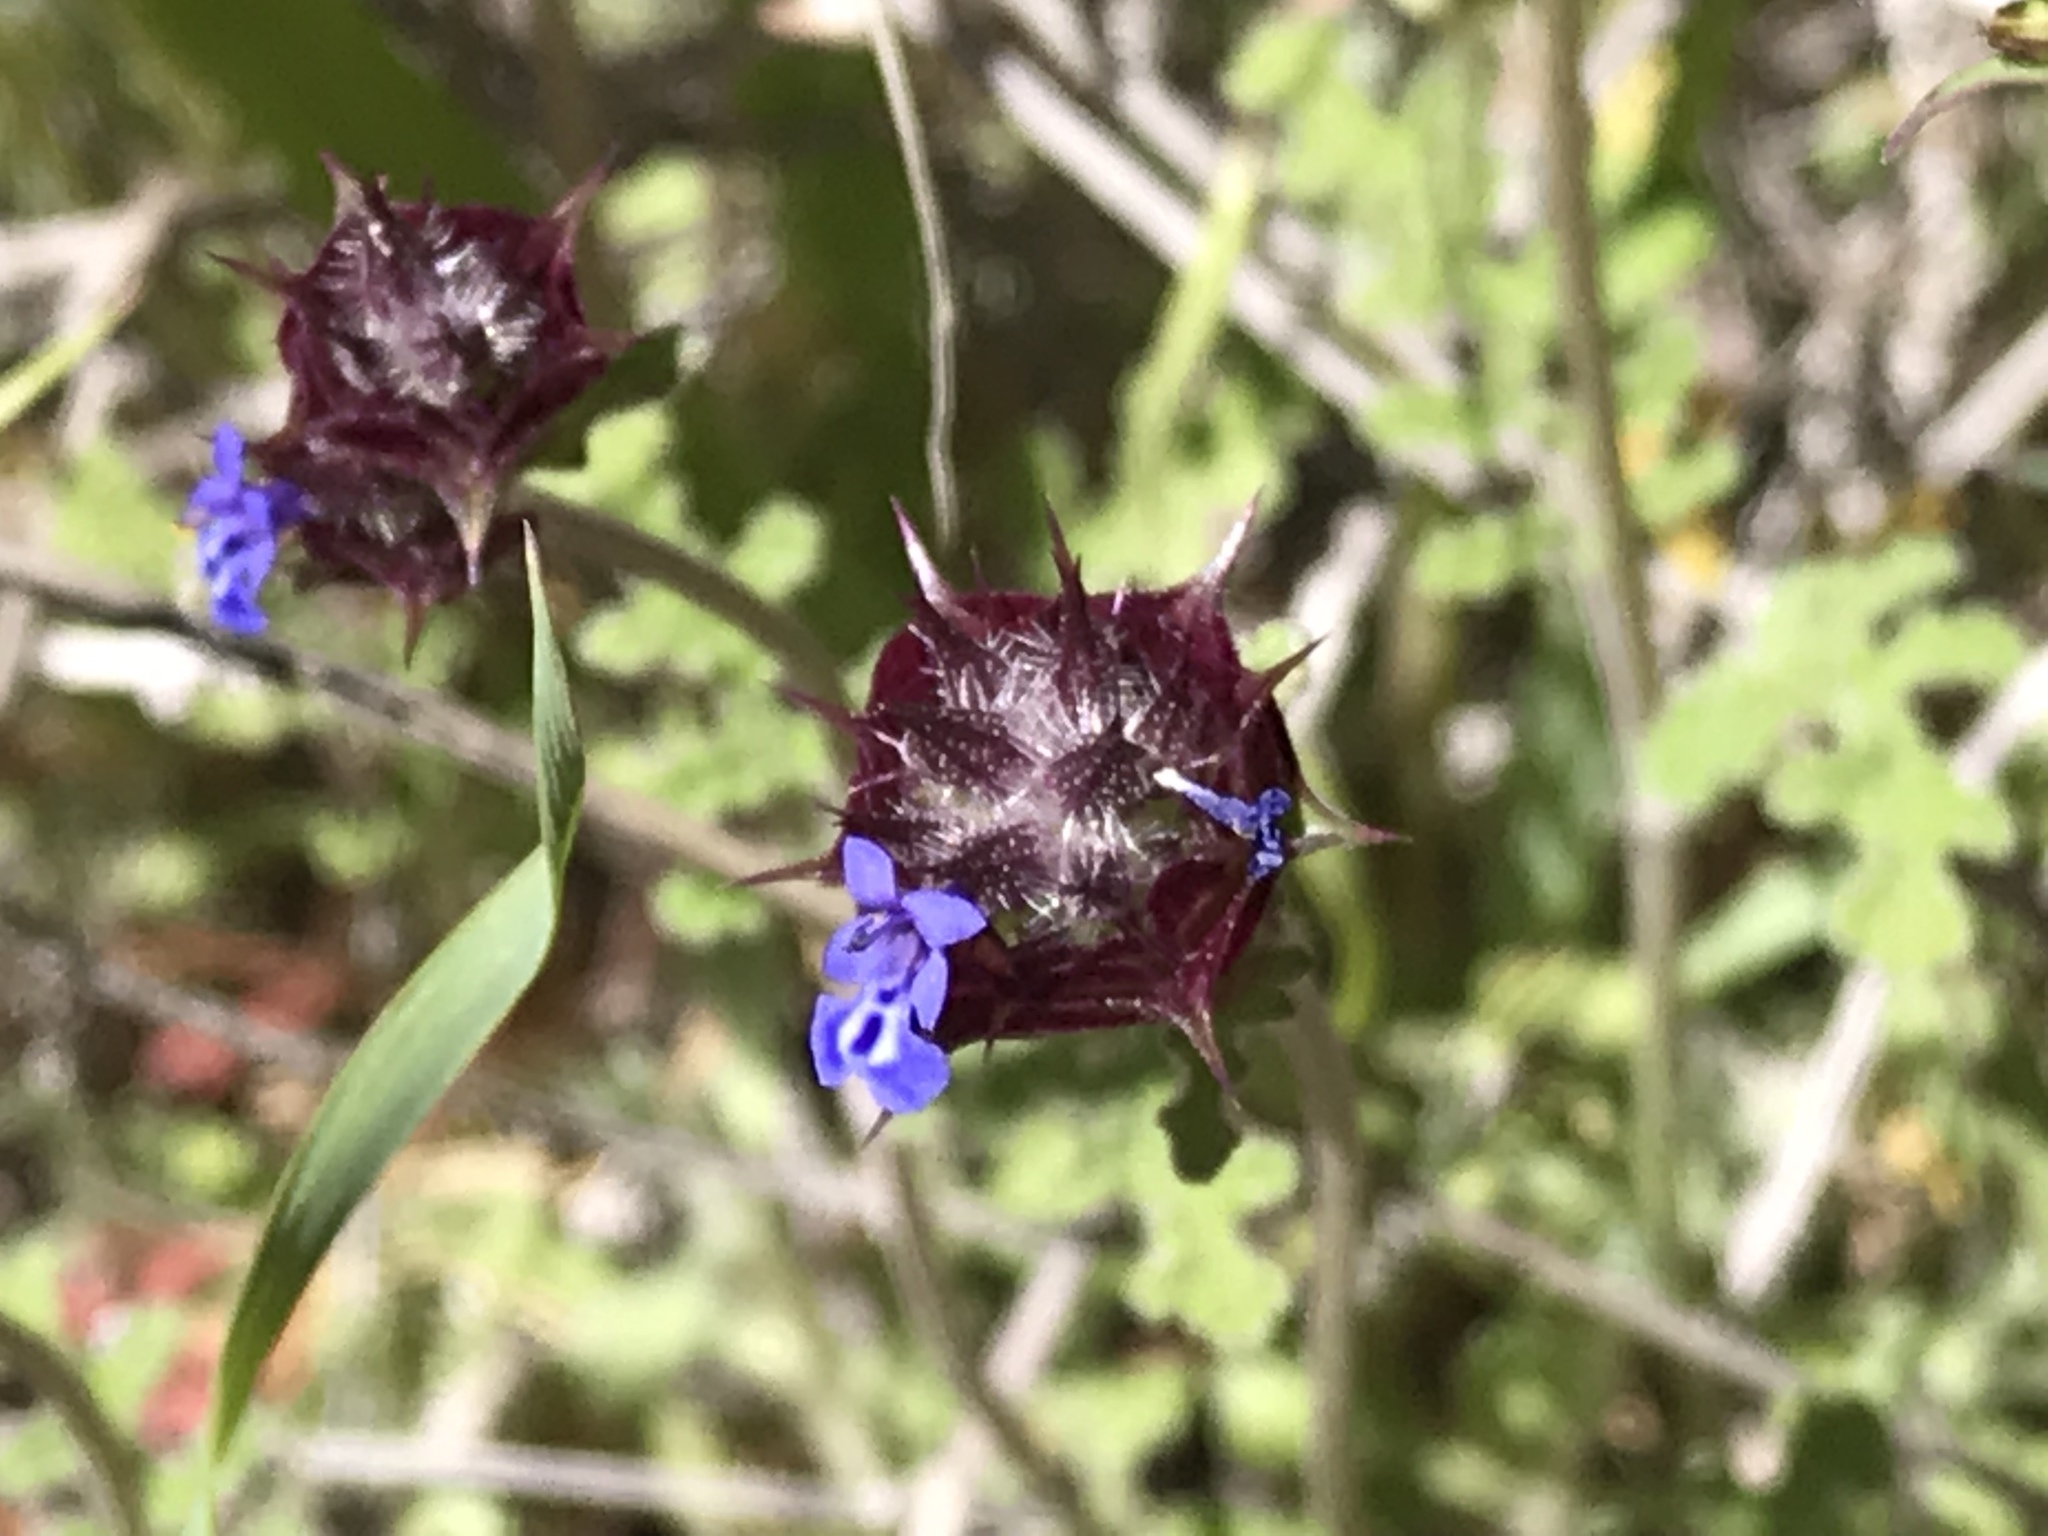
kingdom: Plantae
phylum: Tracheophyta
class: Magnoliopsida
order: Lamiales
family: Lamiaceae
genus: Salvia
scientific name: Salvia columbariae
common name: Chia
